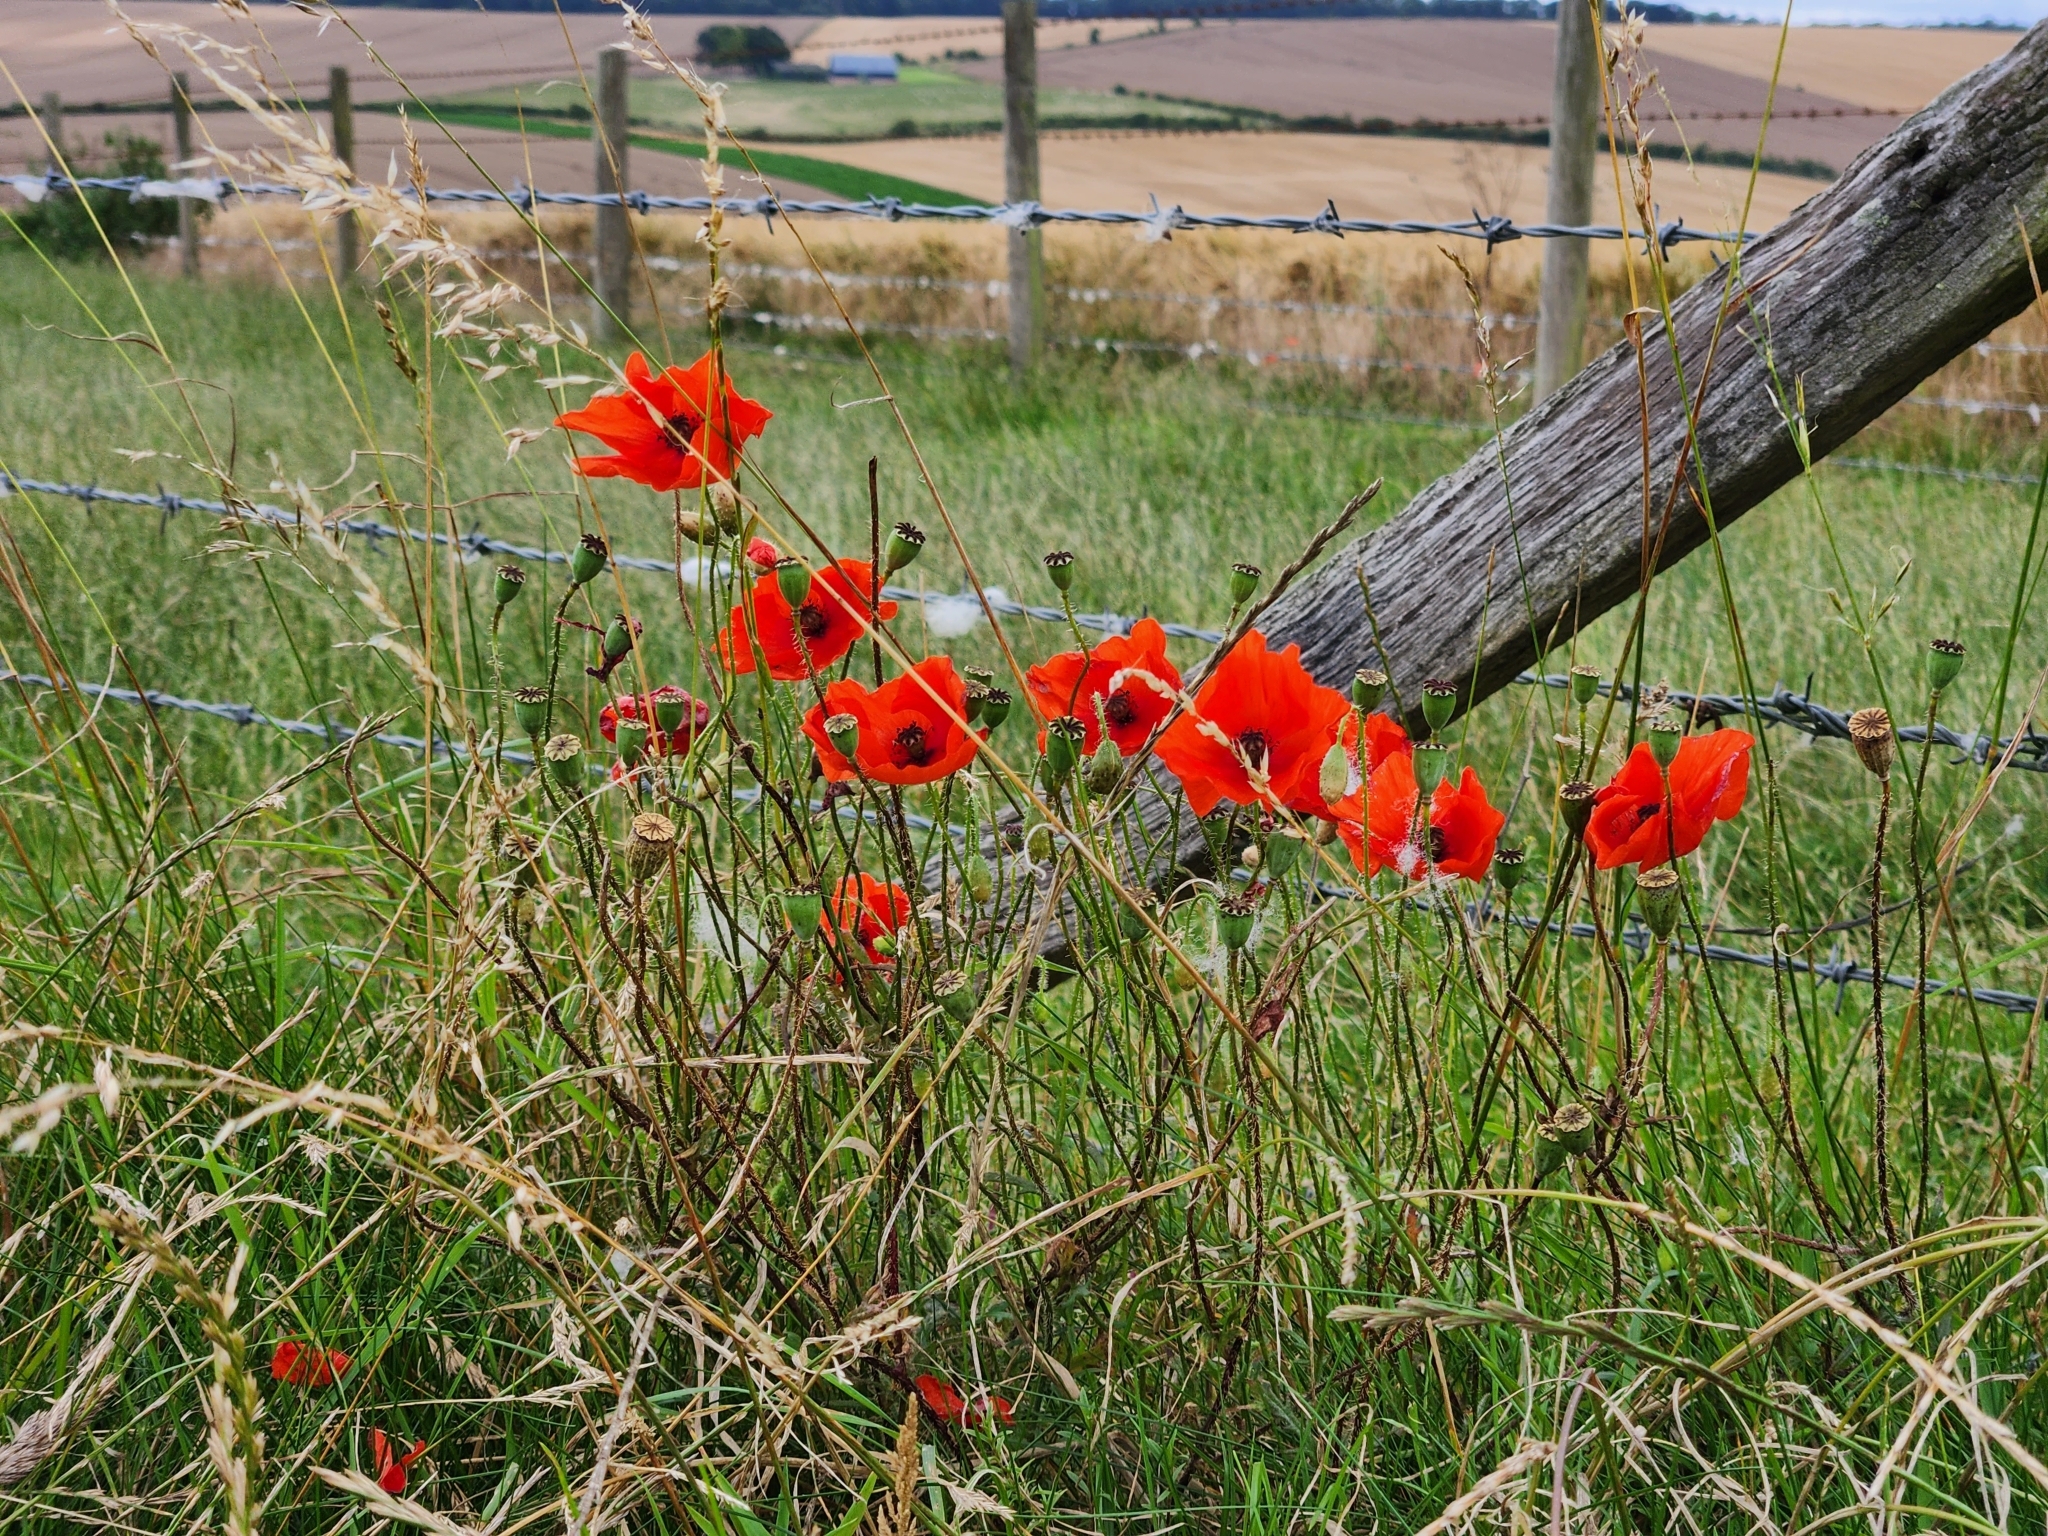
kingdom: Plantae
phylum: Tracheophyta
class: Magnoliopsida
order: Ranunculales
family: Papaveraceae
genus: Papaver
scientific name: Papaver rhoeas
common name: Corn poppy
